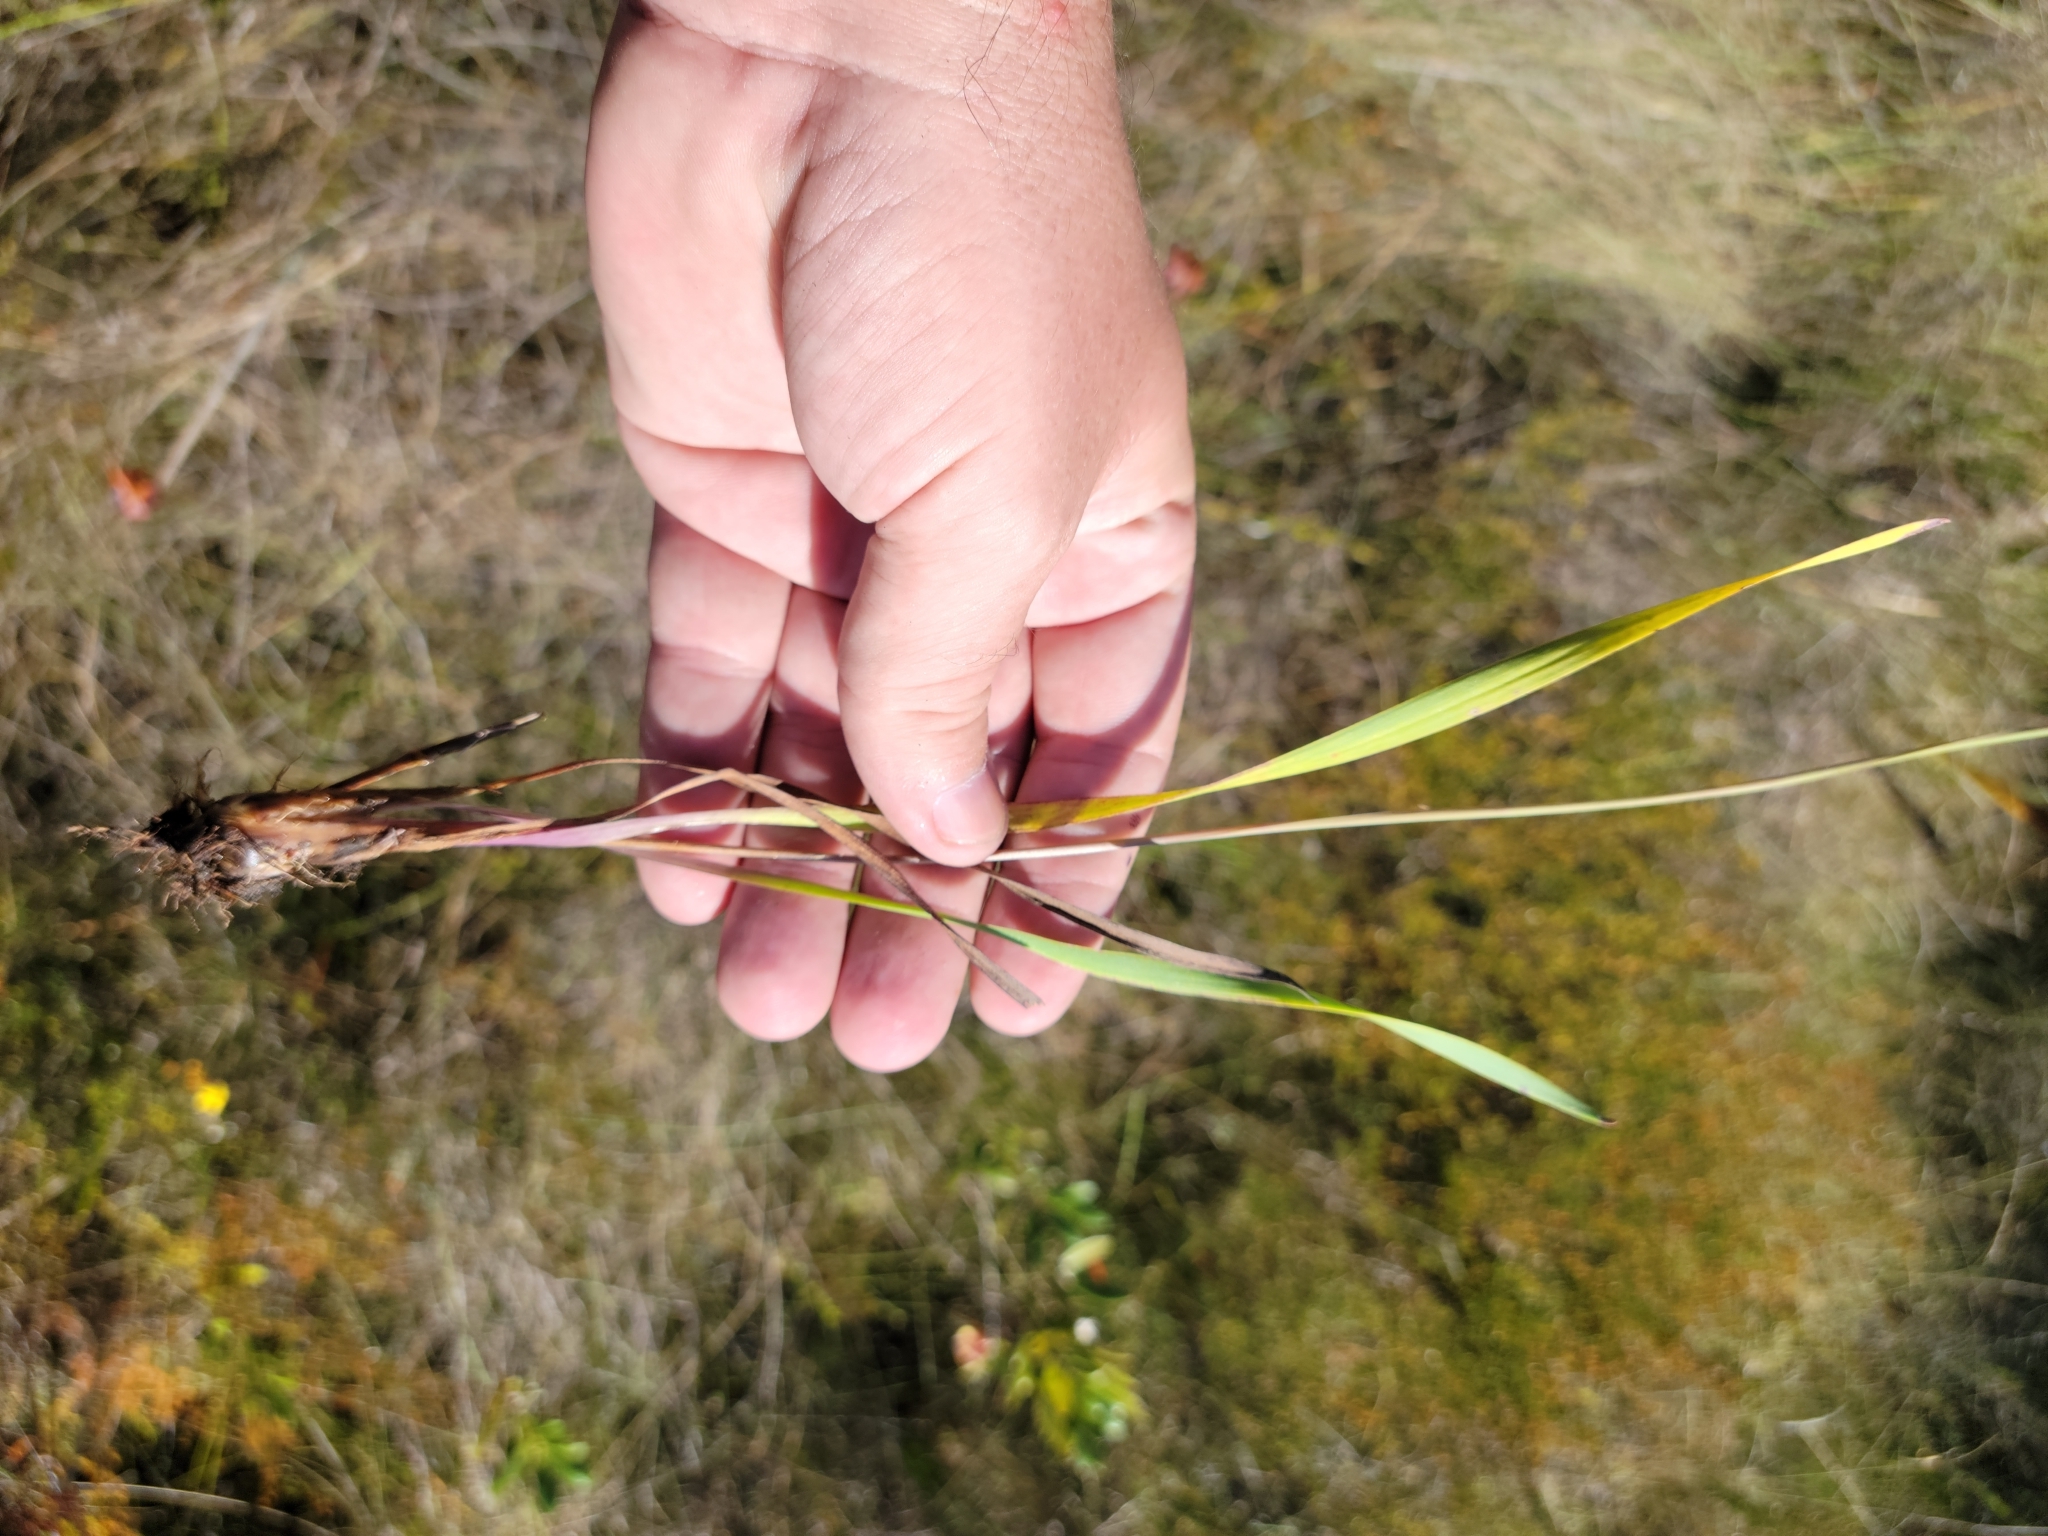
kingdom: Plantae
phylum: Tracheophyta
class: Liliopsida
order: Poales
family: Xyridaceae
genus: Xyris
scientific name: Xyris scabrifolia
